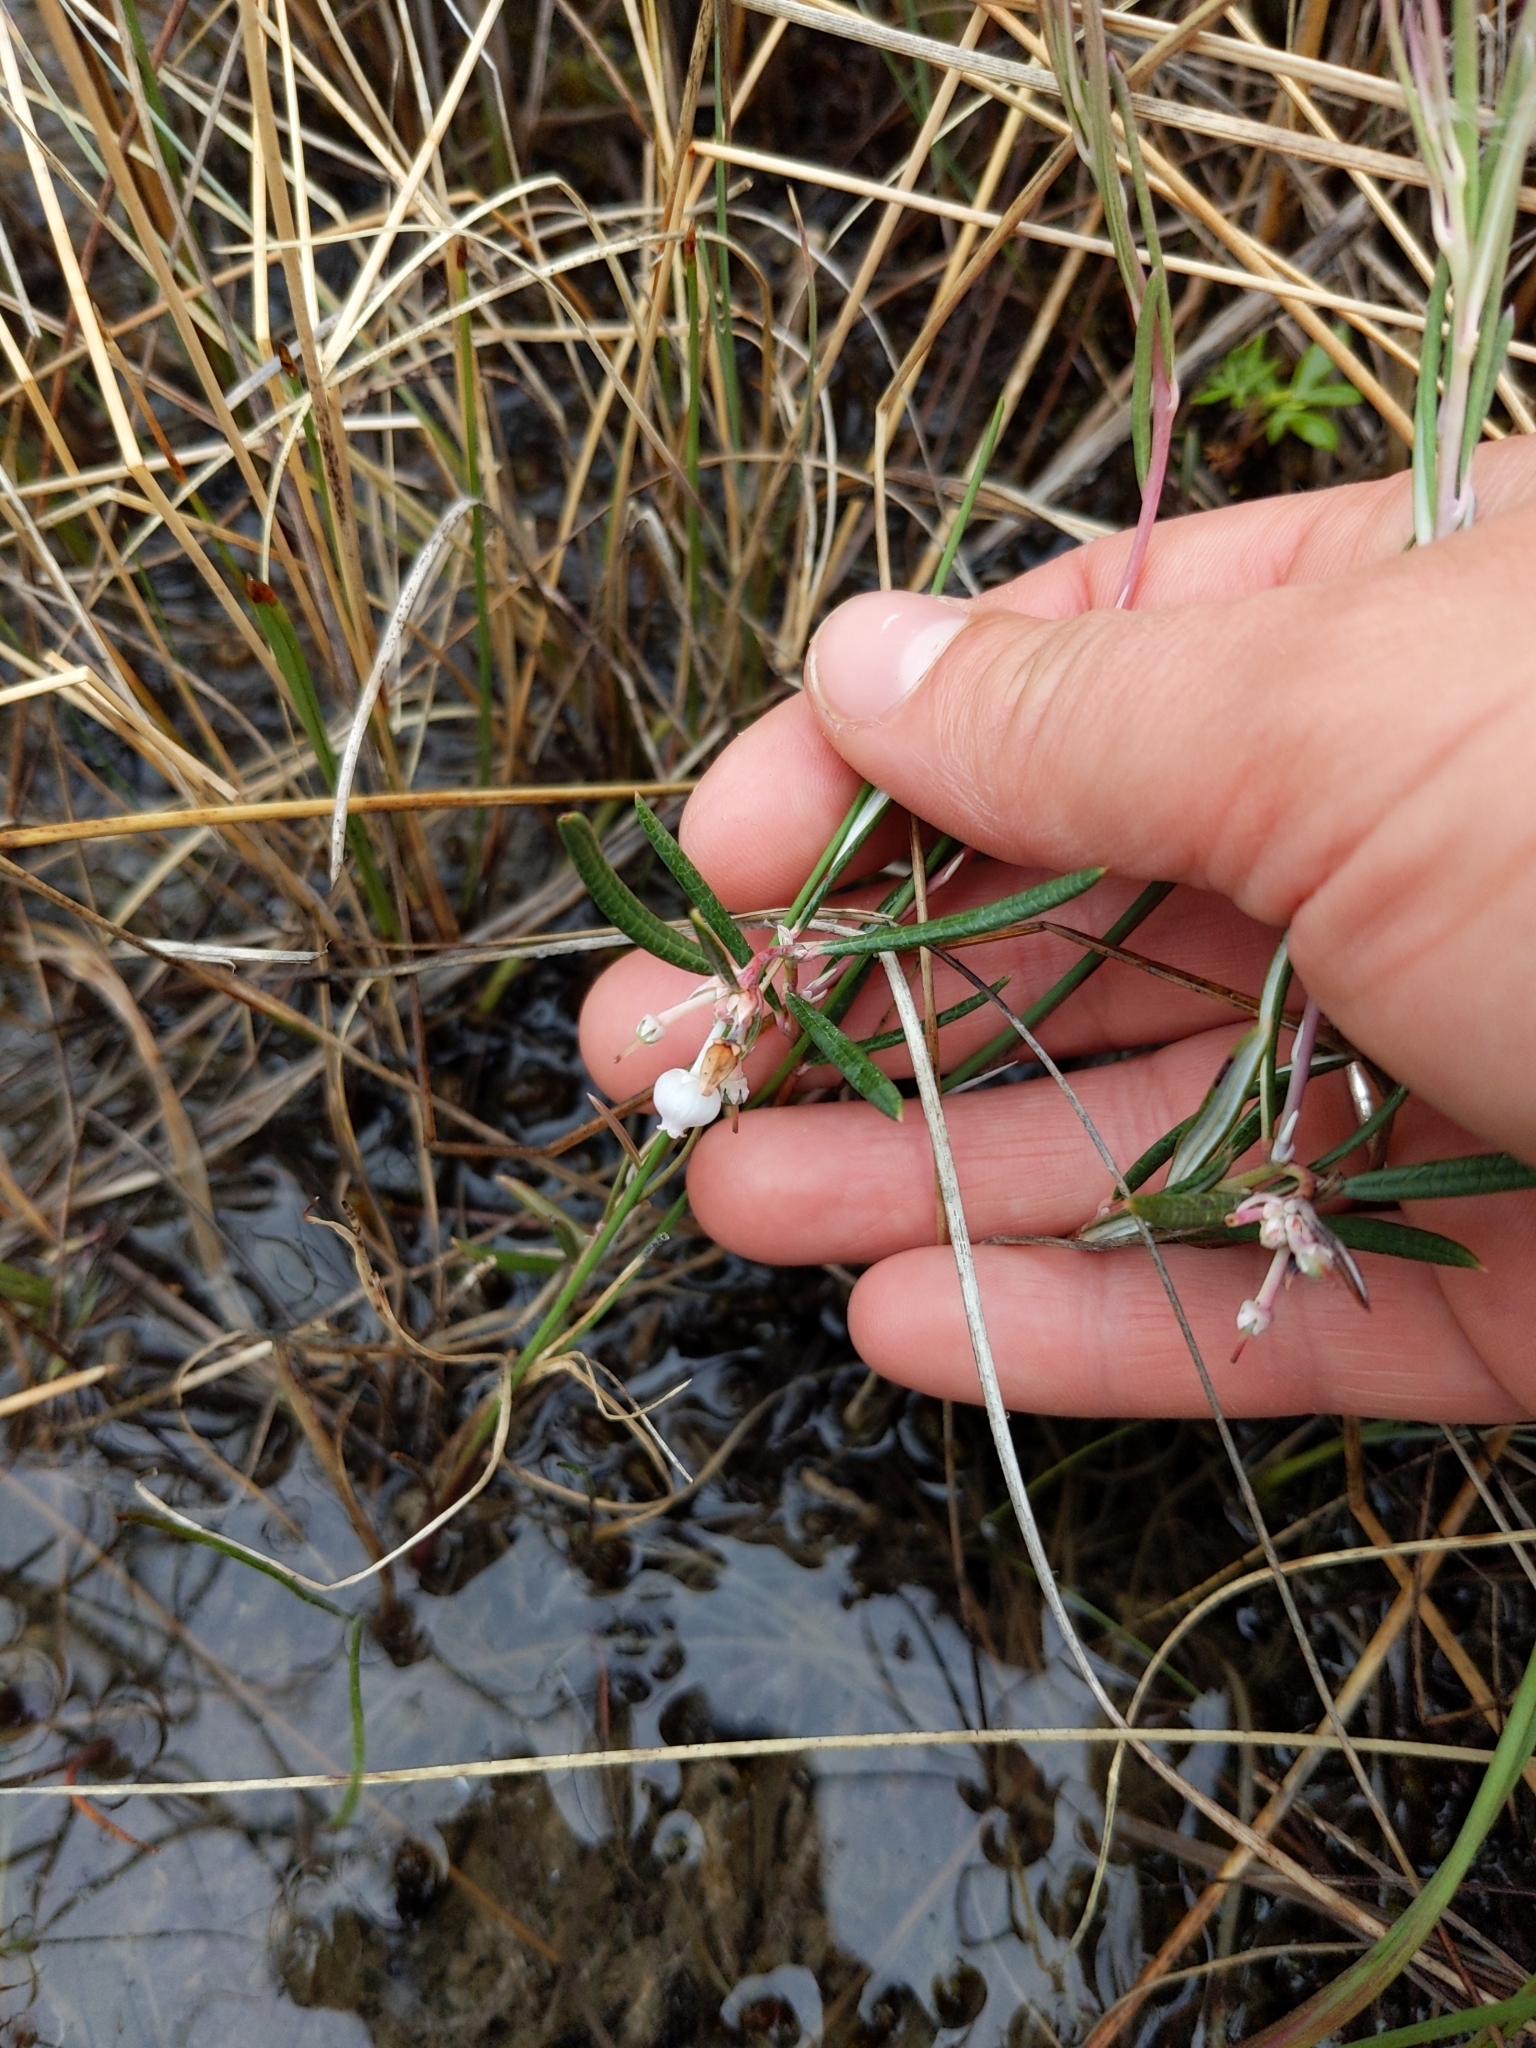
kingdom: Plantae
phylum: Tracheophyta
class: Magnoliopsida
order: Ericales
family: Ericaceae
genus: Andromeda
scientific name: Andromeda polifolia
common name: Bog-rosemary
